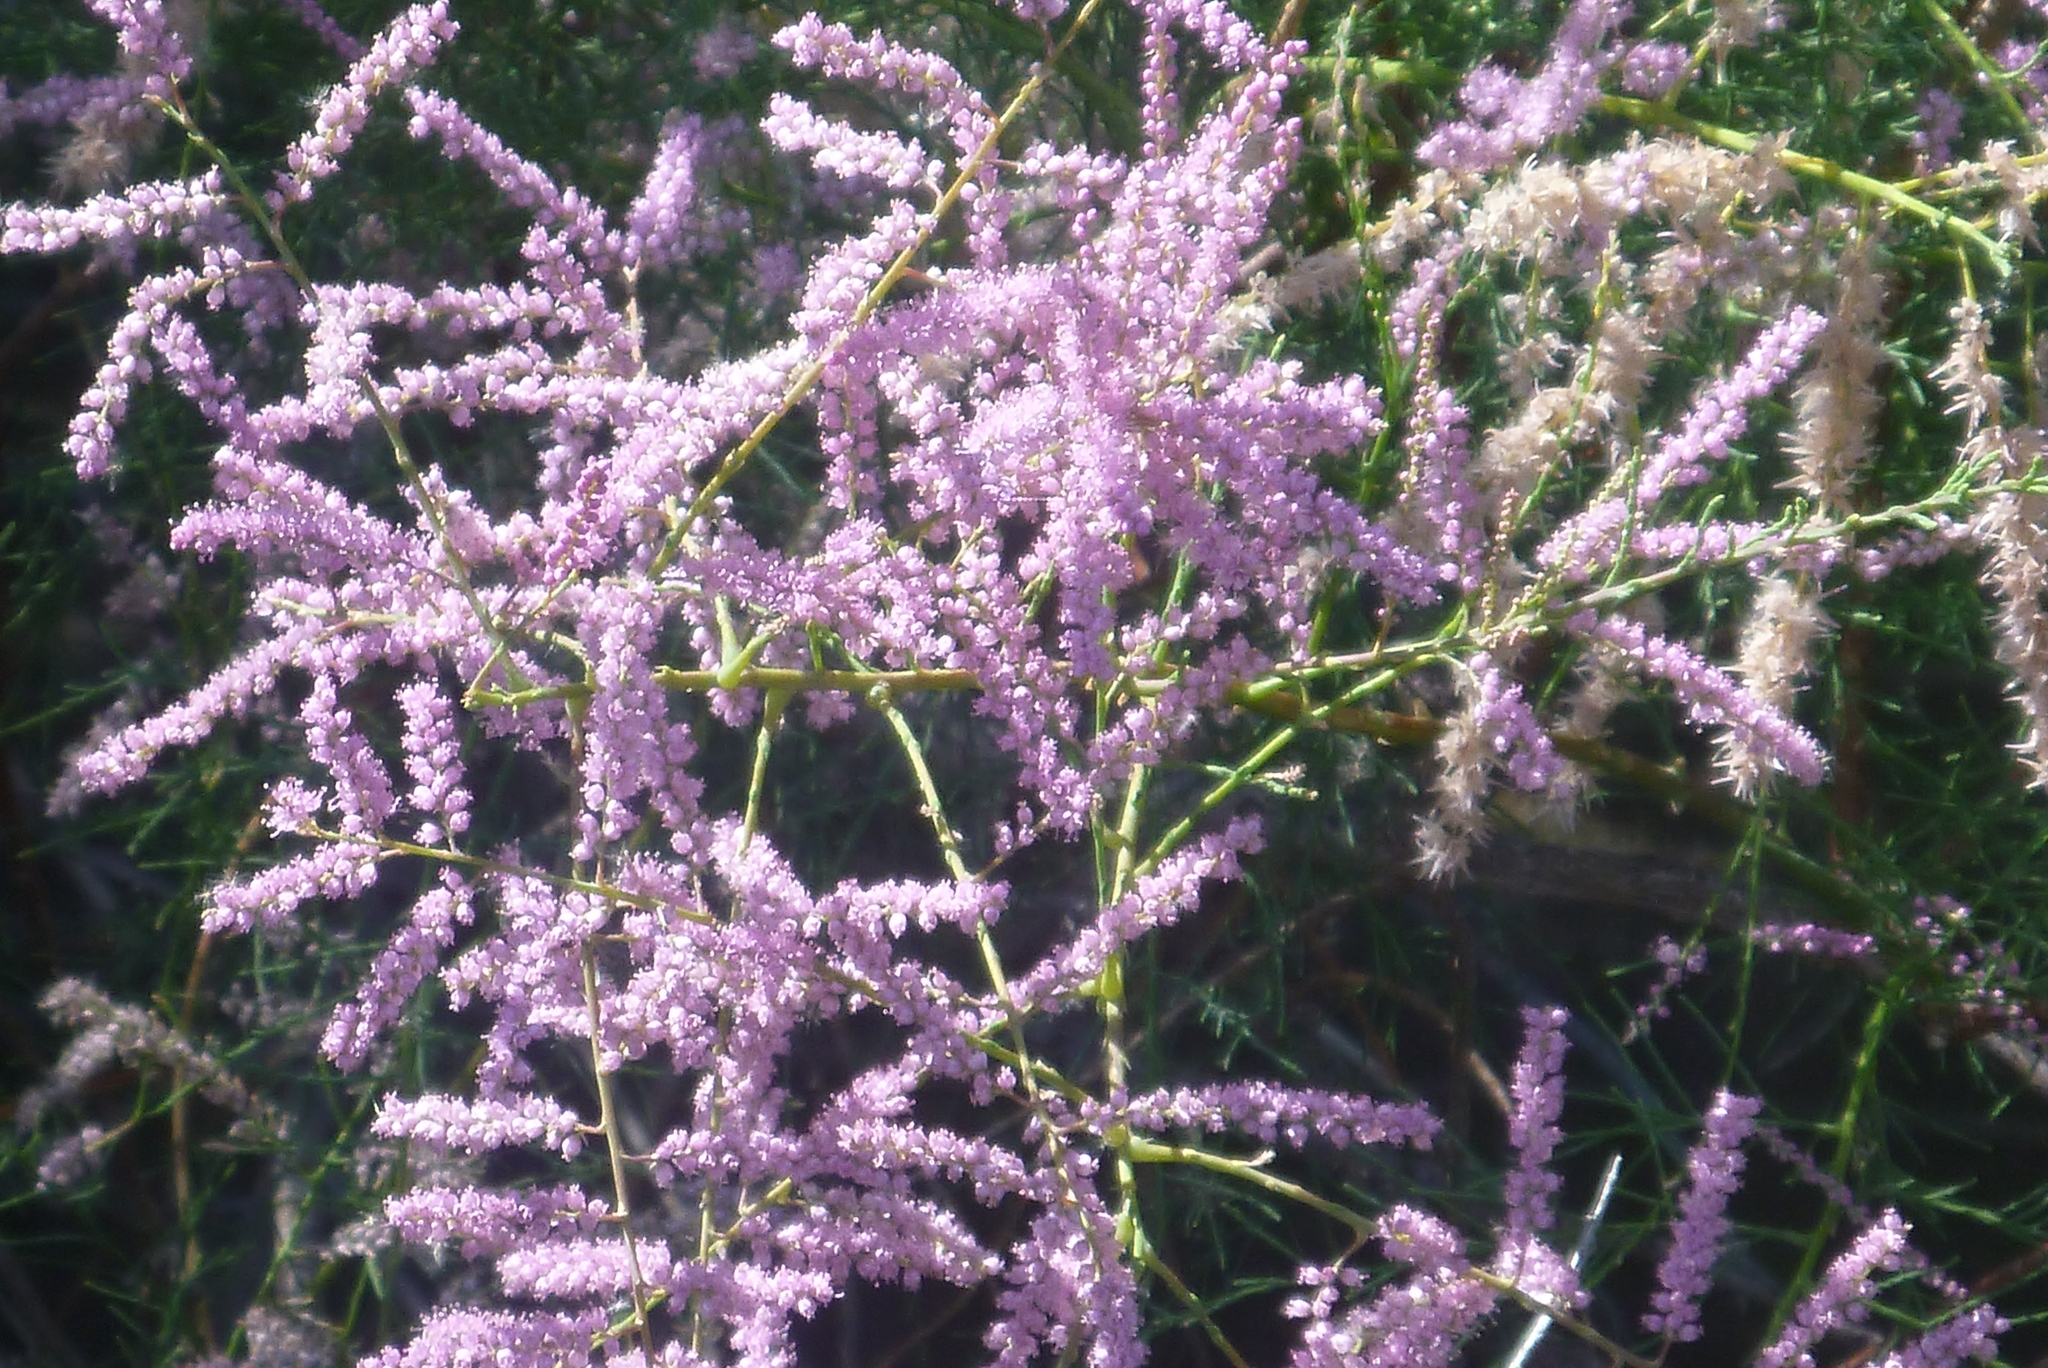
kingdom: Plantae
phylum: Tracheophyta
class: Magnoliopsida
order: Caryophyllales
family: Tamaricaceae
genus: Tamarix
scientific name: Tamarix ramosissima
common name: Pink tamarisk
